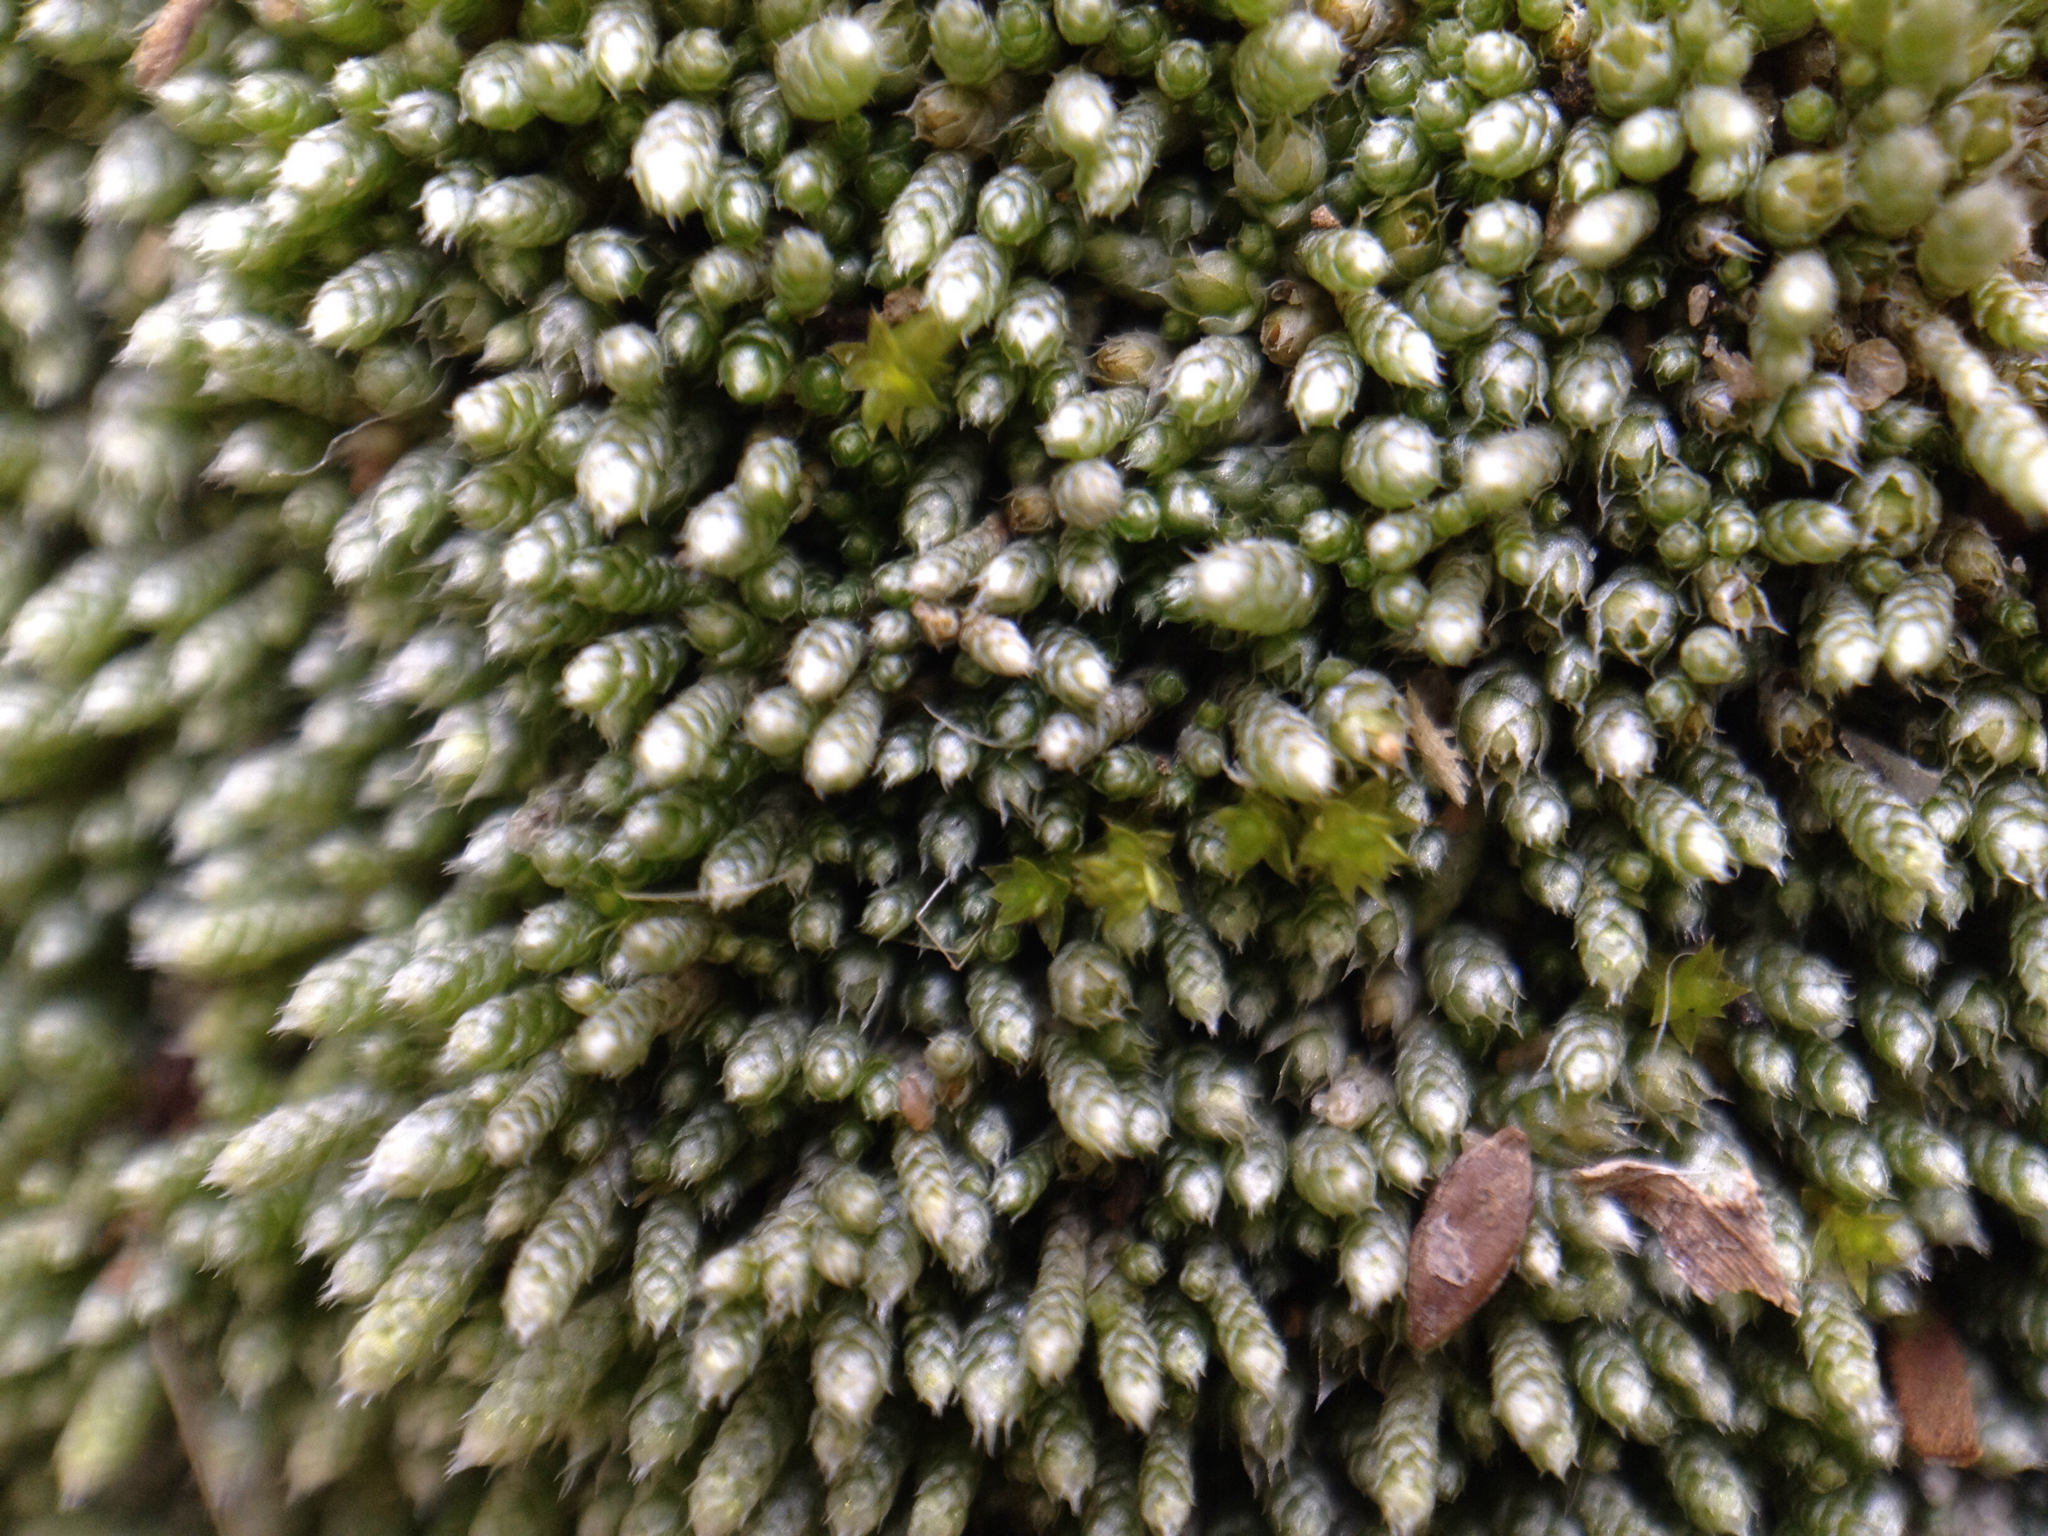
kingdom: Plantae
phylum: Bryophyta
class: Bryopsida
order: Bryales
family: Bryaceae
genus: Bryum
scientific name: Bryum argenteum
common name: Silver-moss
